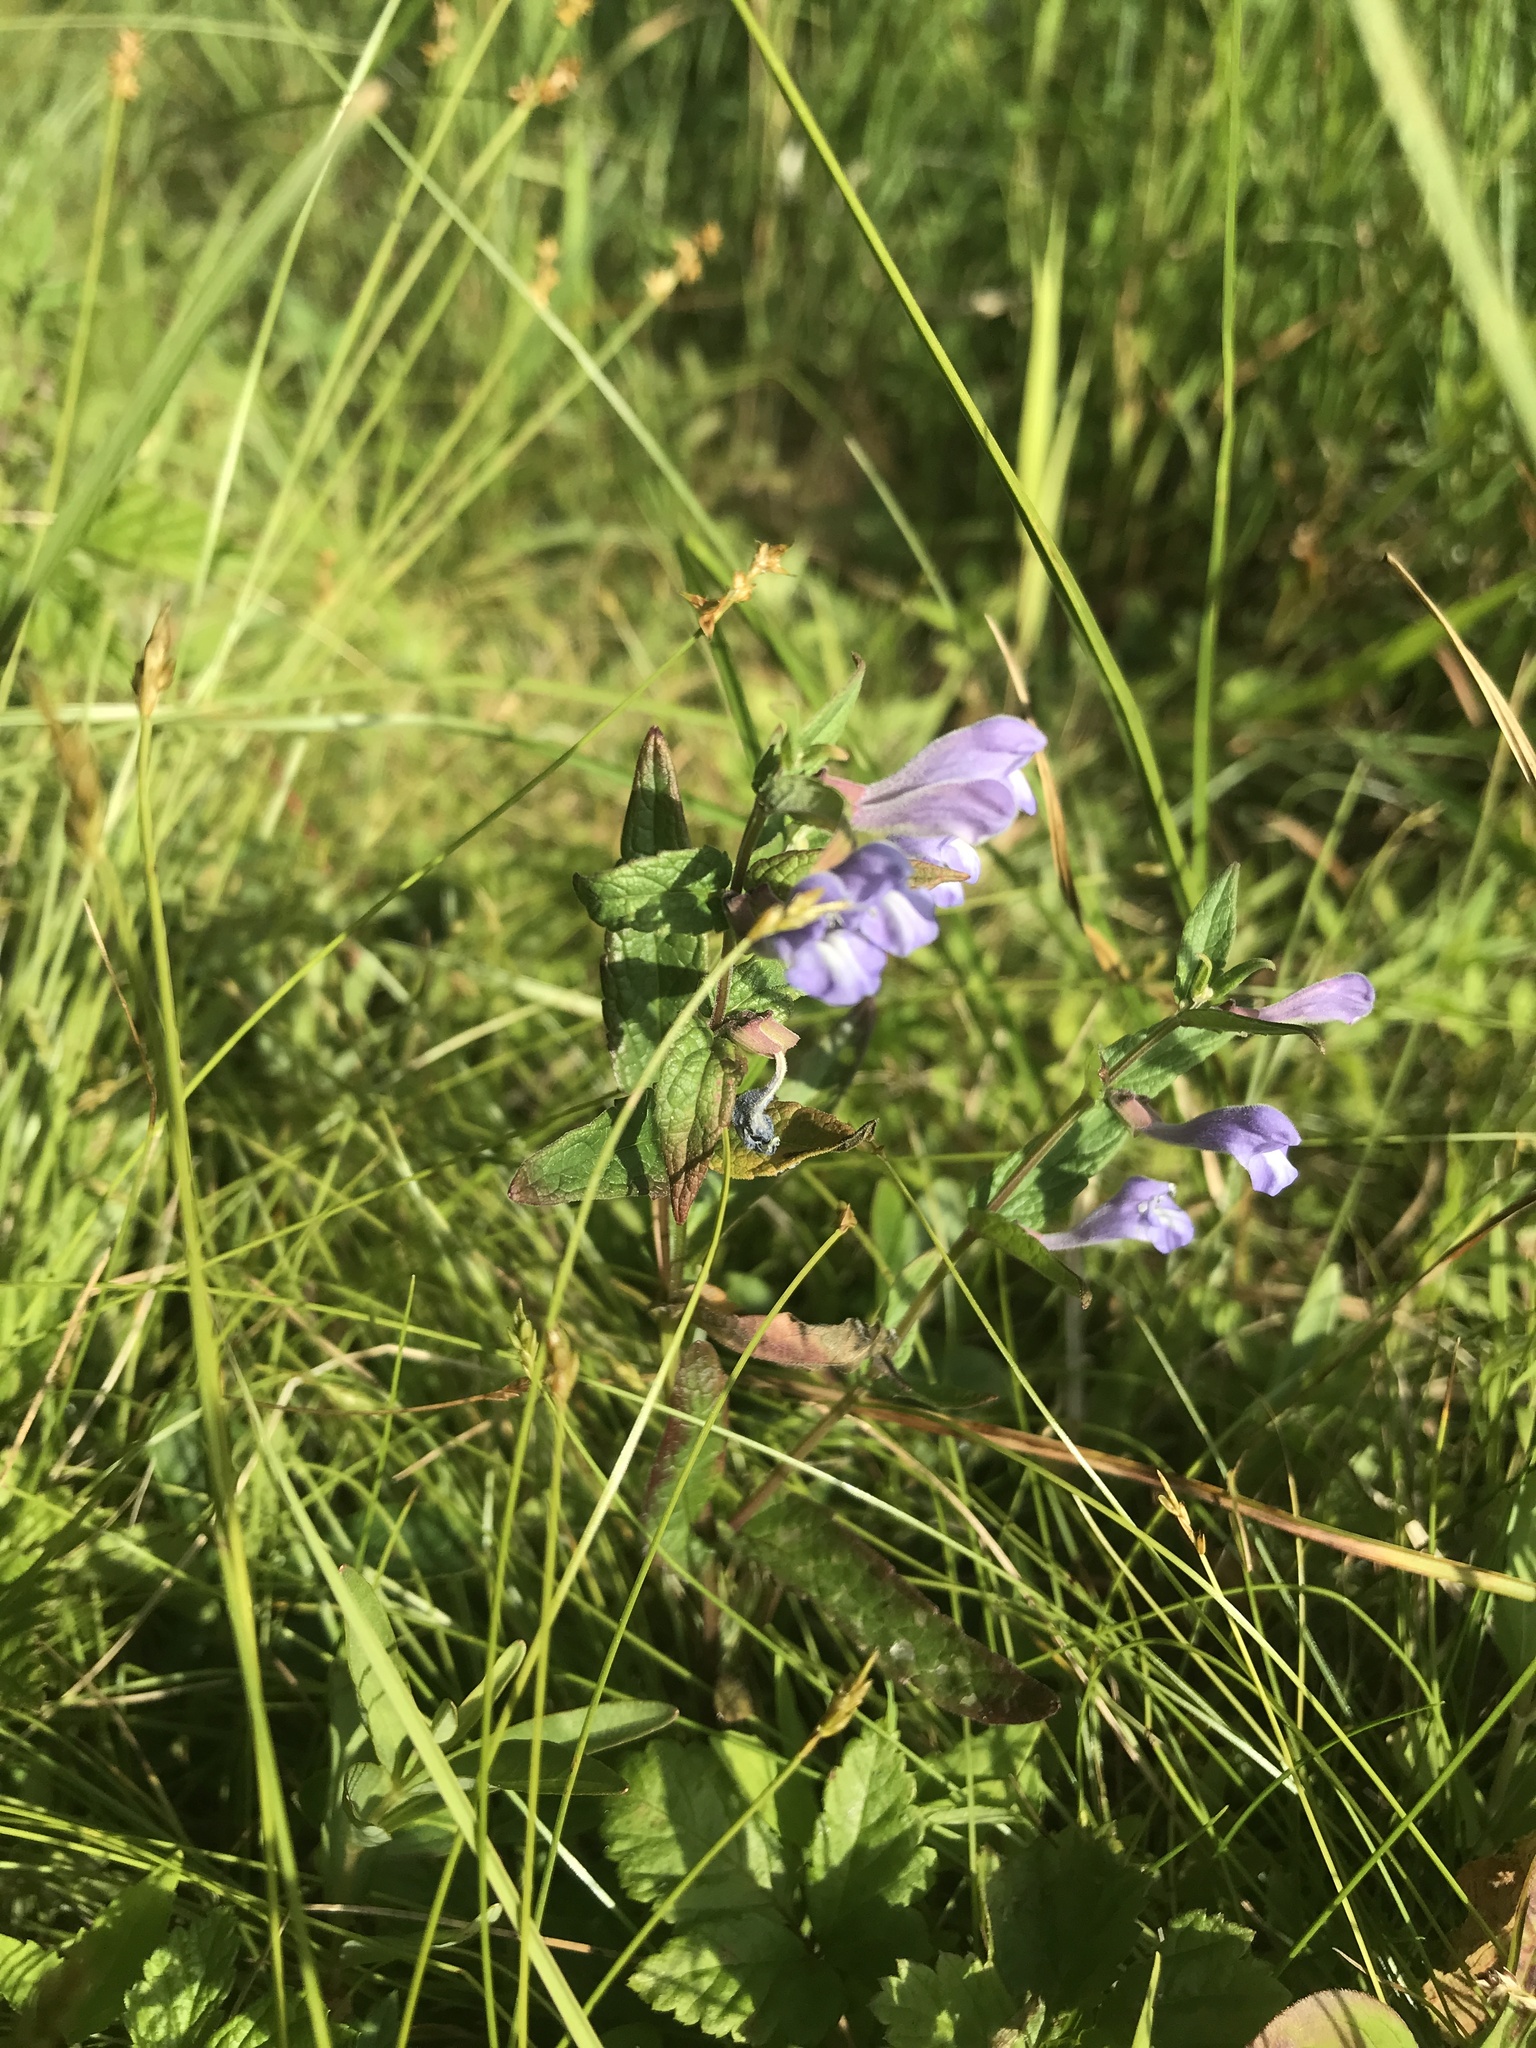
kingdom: Plantae
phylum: Tracheophyta
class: Magnoliopsida
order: Lamiales
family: Lamiaceae
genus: Scutellaria
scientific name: Scutellaria galericulata
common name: Skullcap
